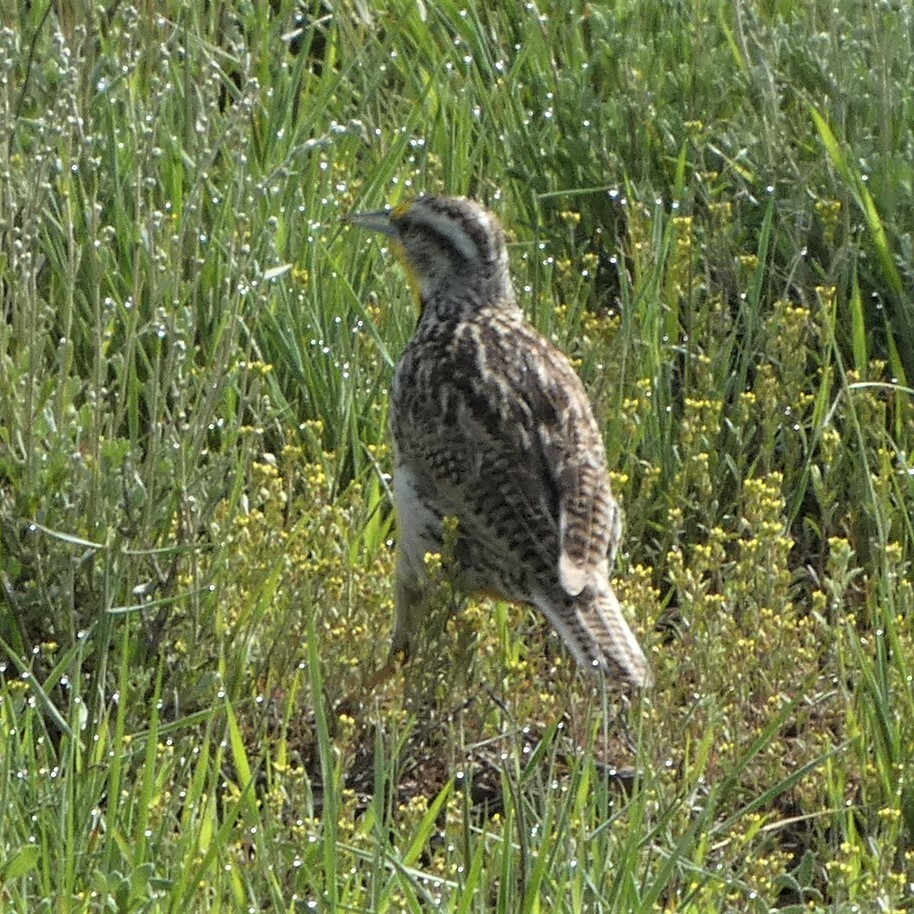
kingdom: Animalia
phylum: Chordata
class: Aves
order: Passeriformes
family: Icteridae
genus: Sturnella
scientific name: Sturnella neglecta
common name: Western meadowlark
